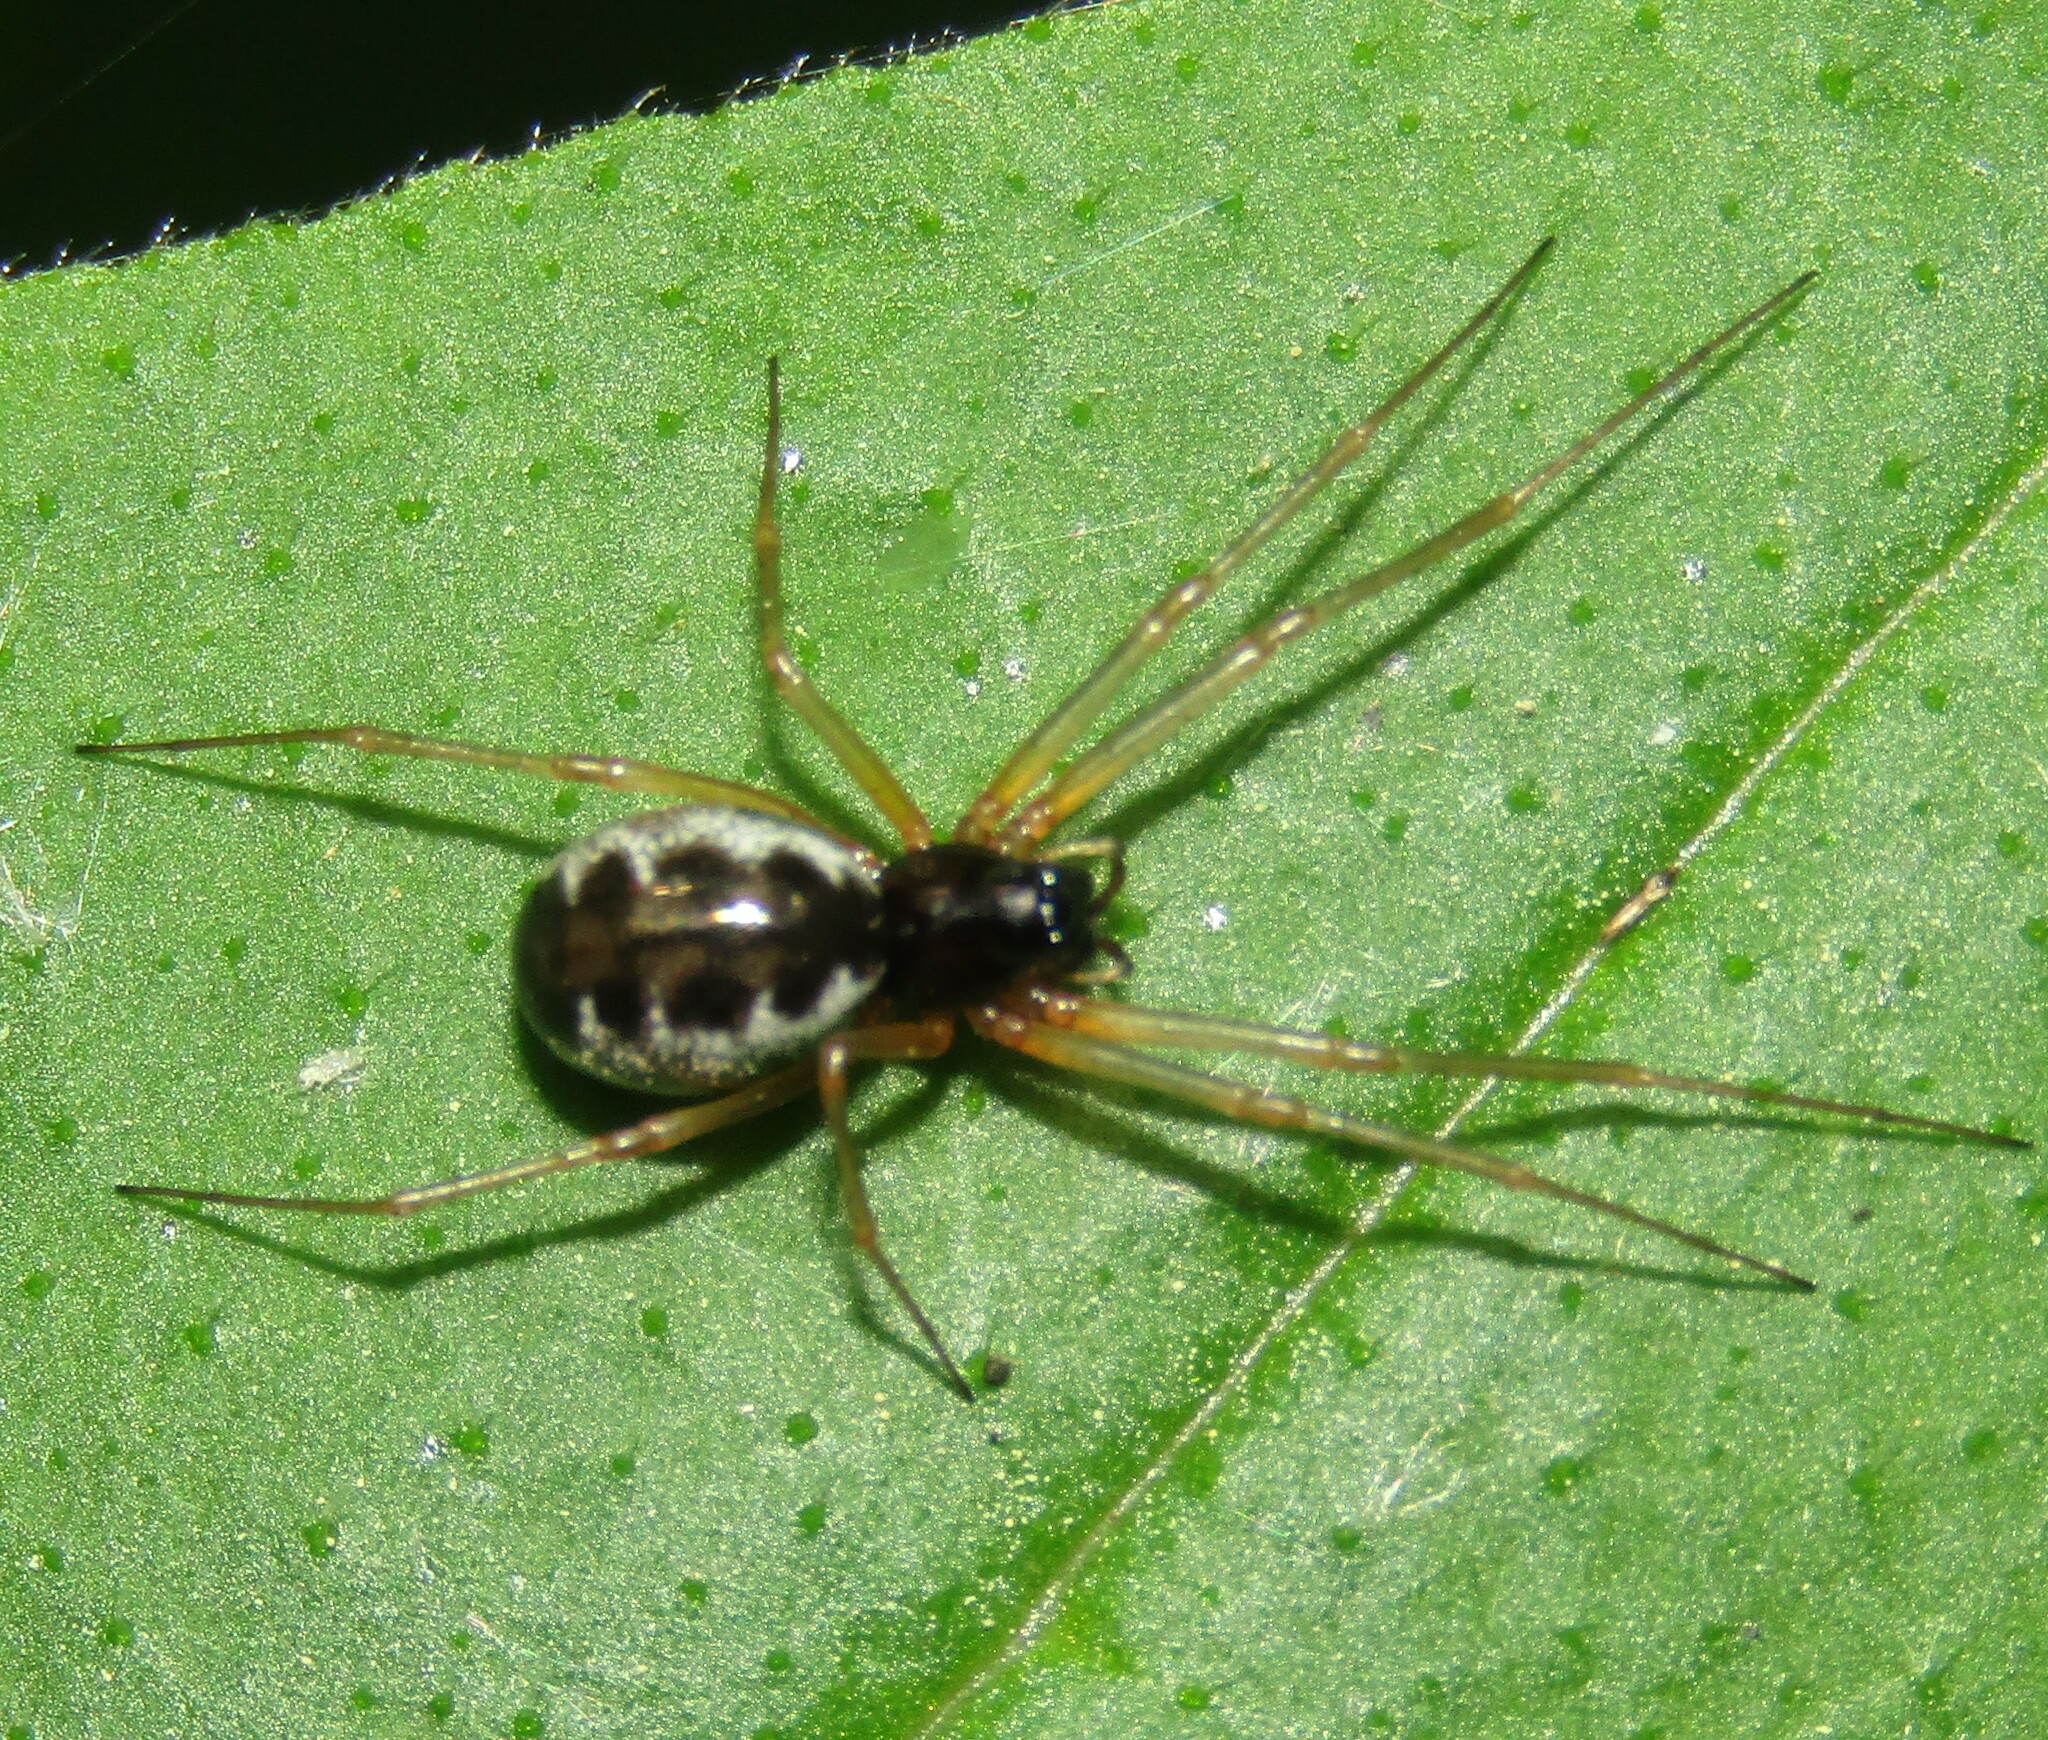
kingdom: Animalia
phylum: Arthropoda
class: Arachnida
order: Araneae
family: Linyphiidae
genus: Linyphia
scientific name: Linyphia hortensis
